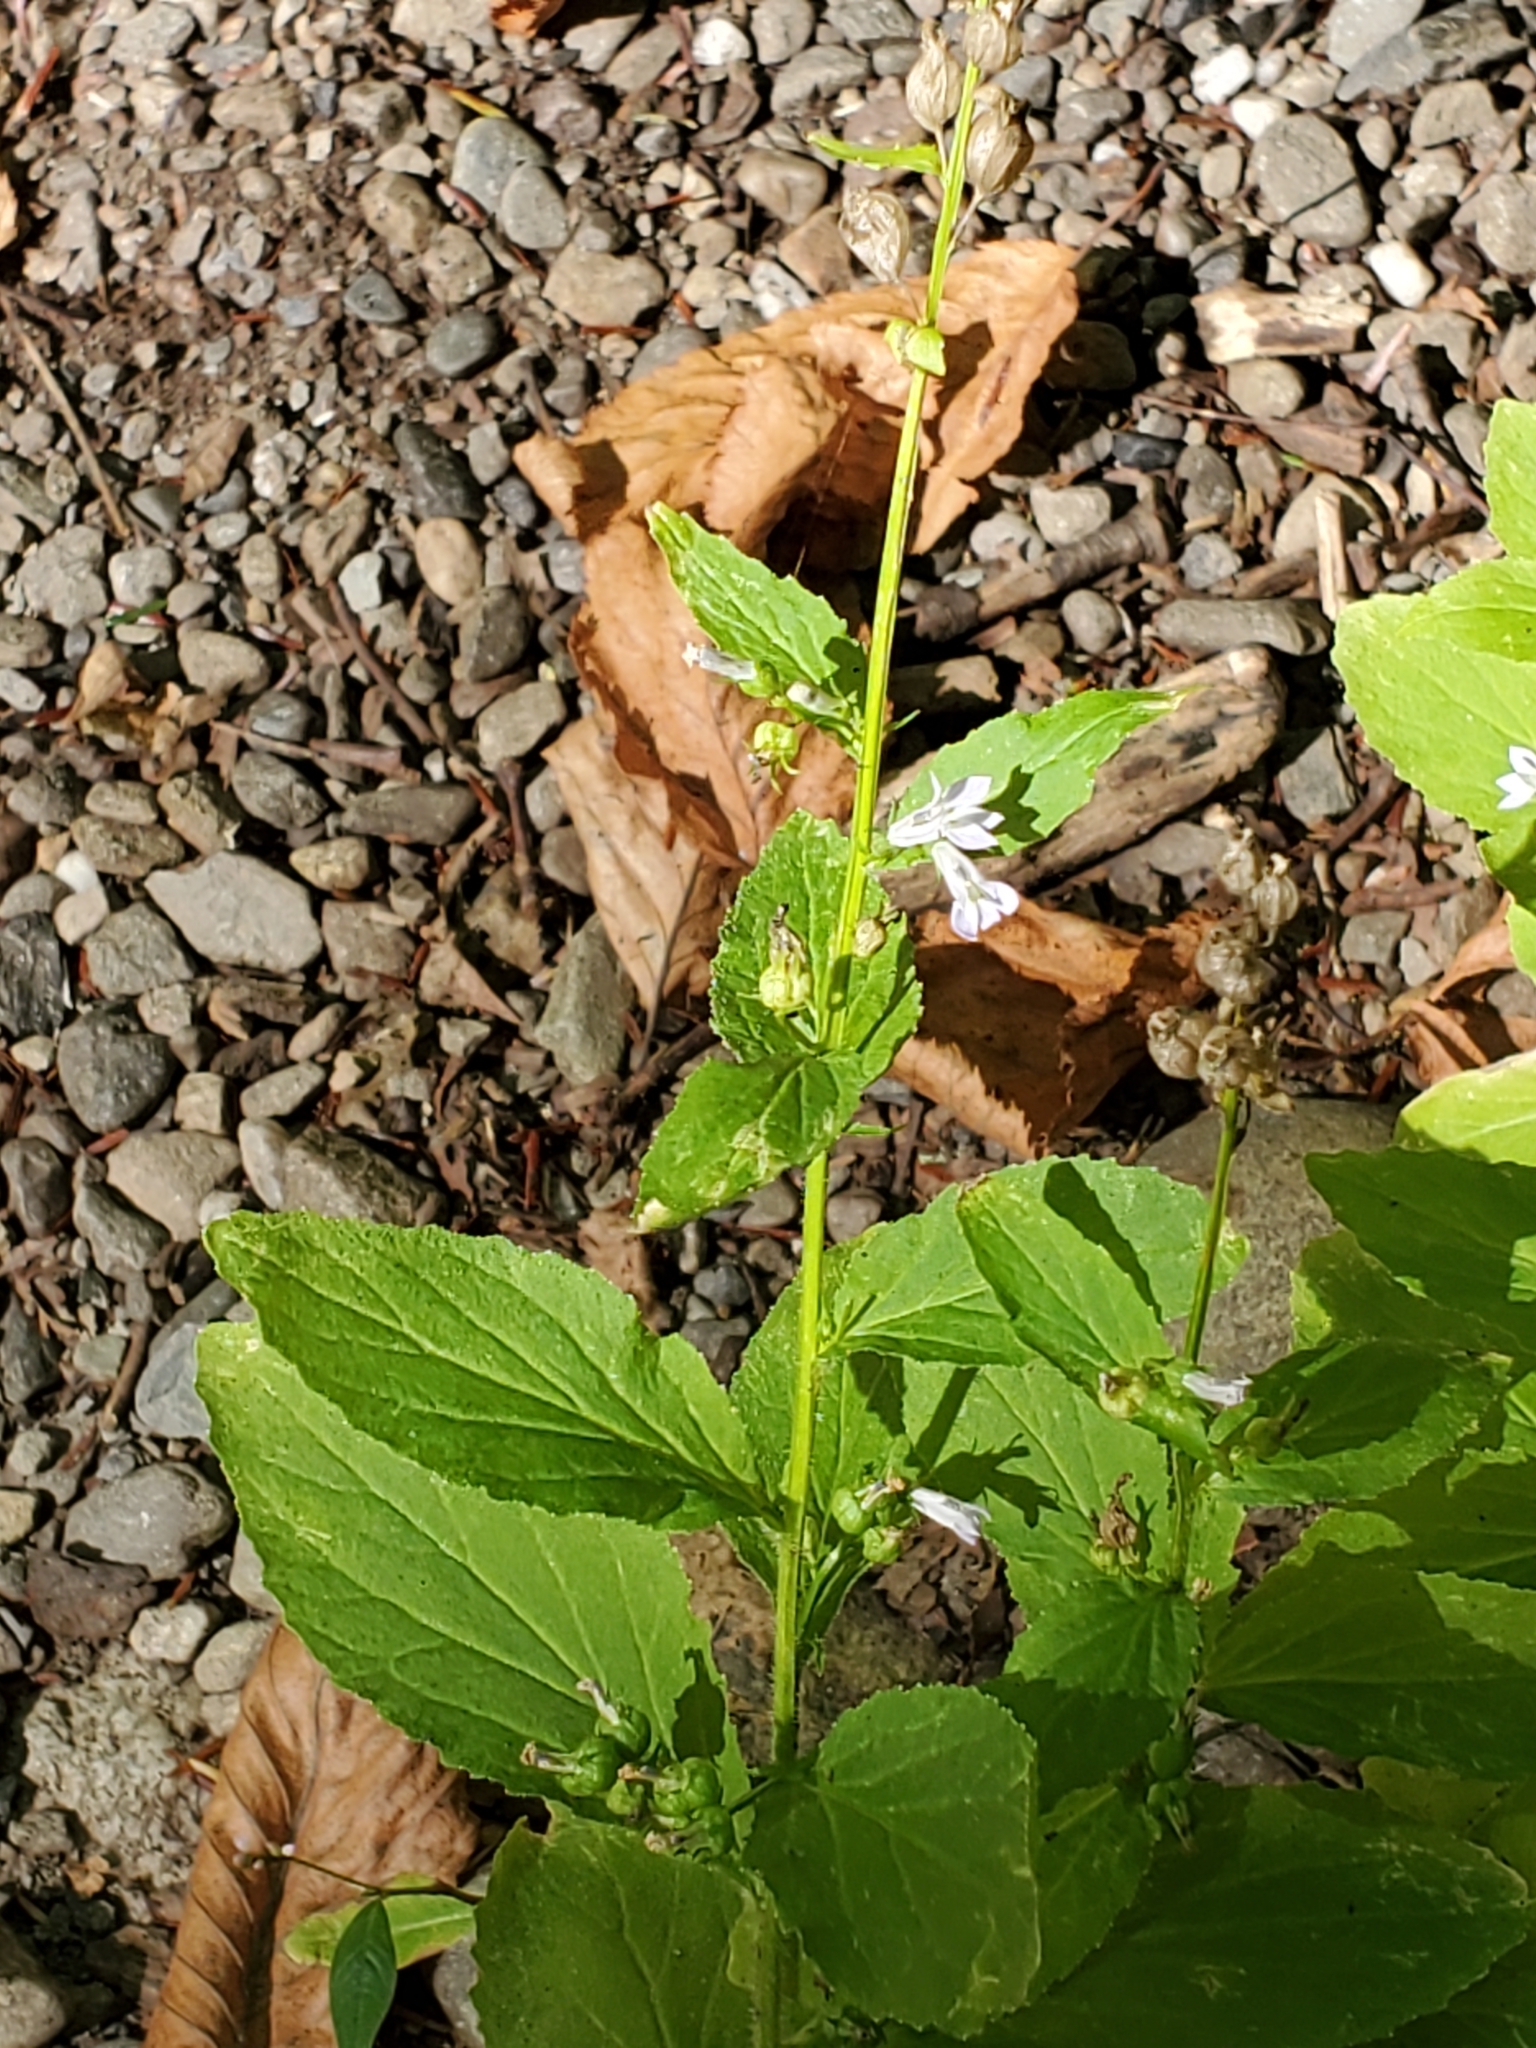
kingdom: Plantae
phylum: Tracheophyta
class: Magnoliopsida
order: Asterales
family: Campanulaceae
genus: Lobelia
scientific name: Lobelia inflata
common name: Indian tobacco
